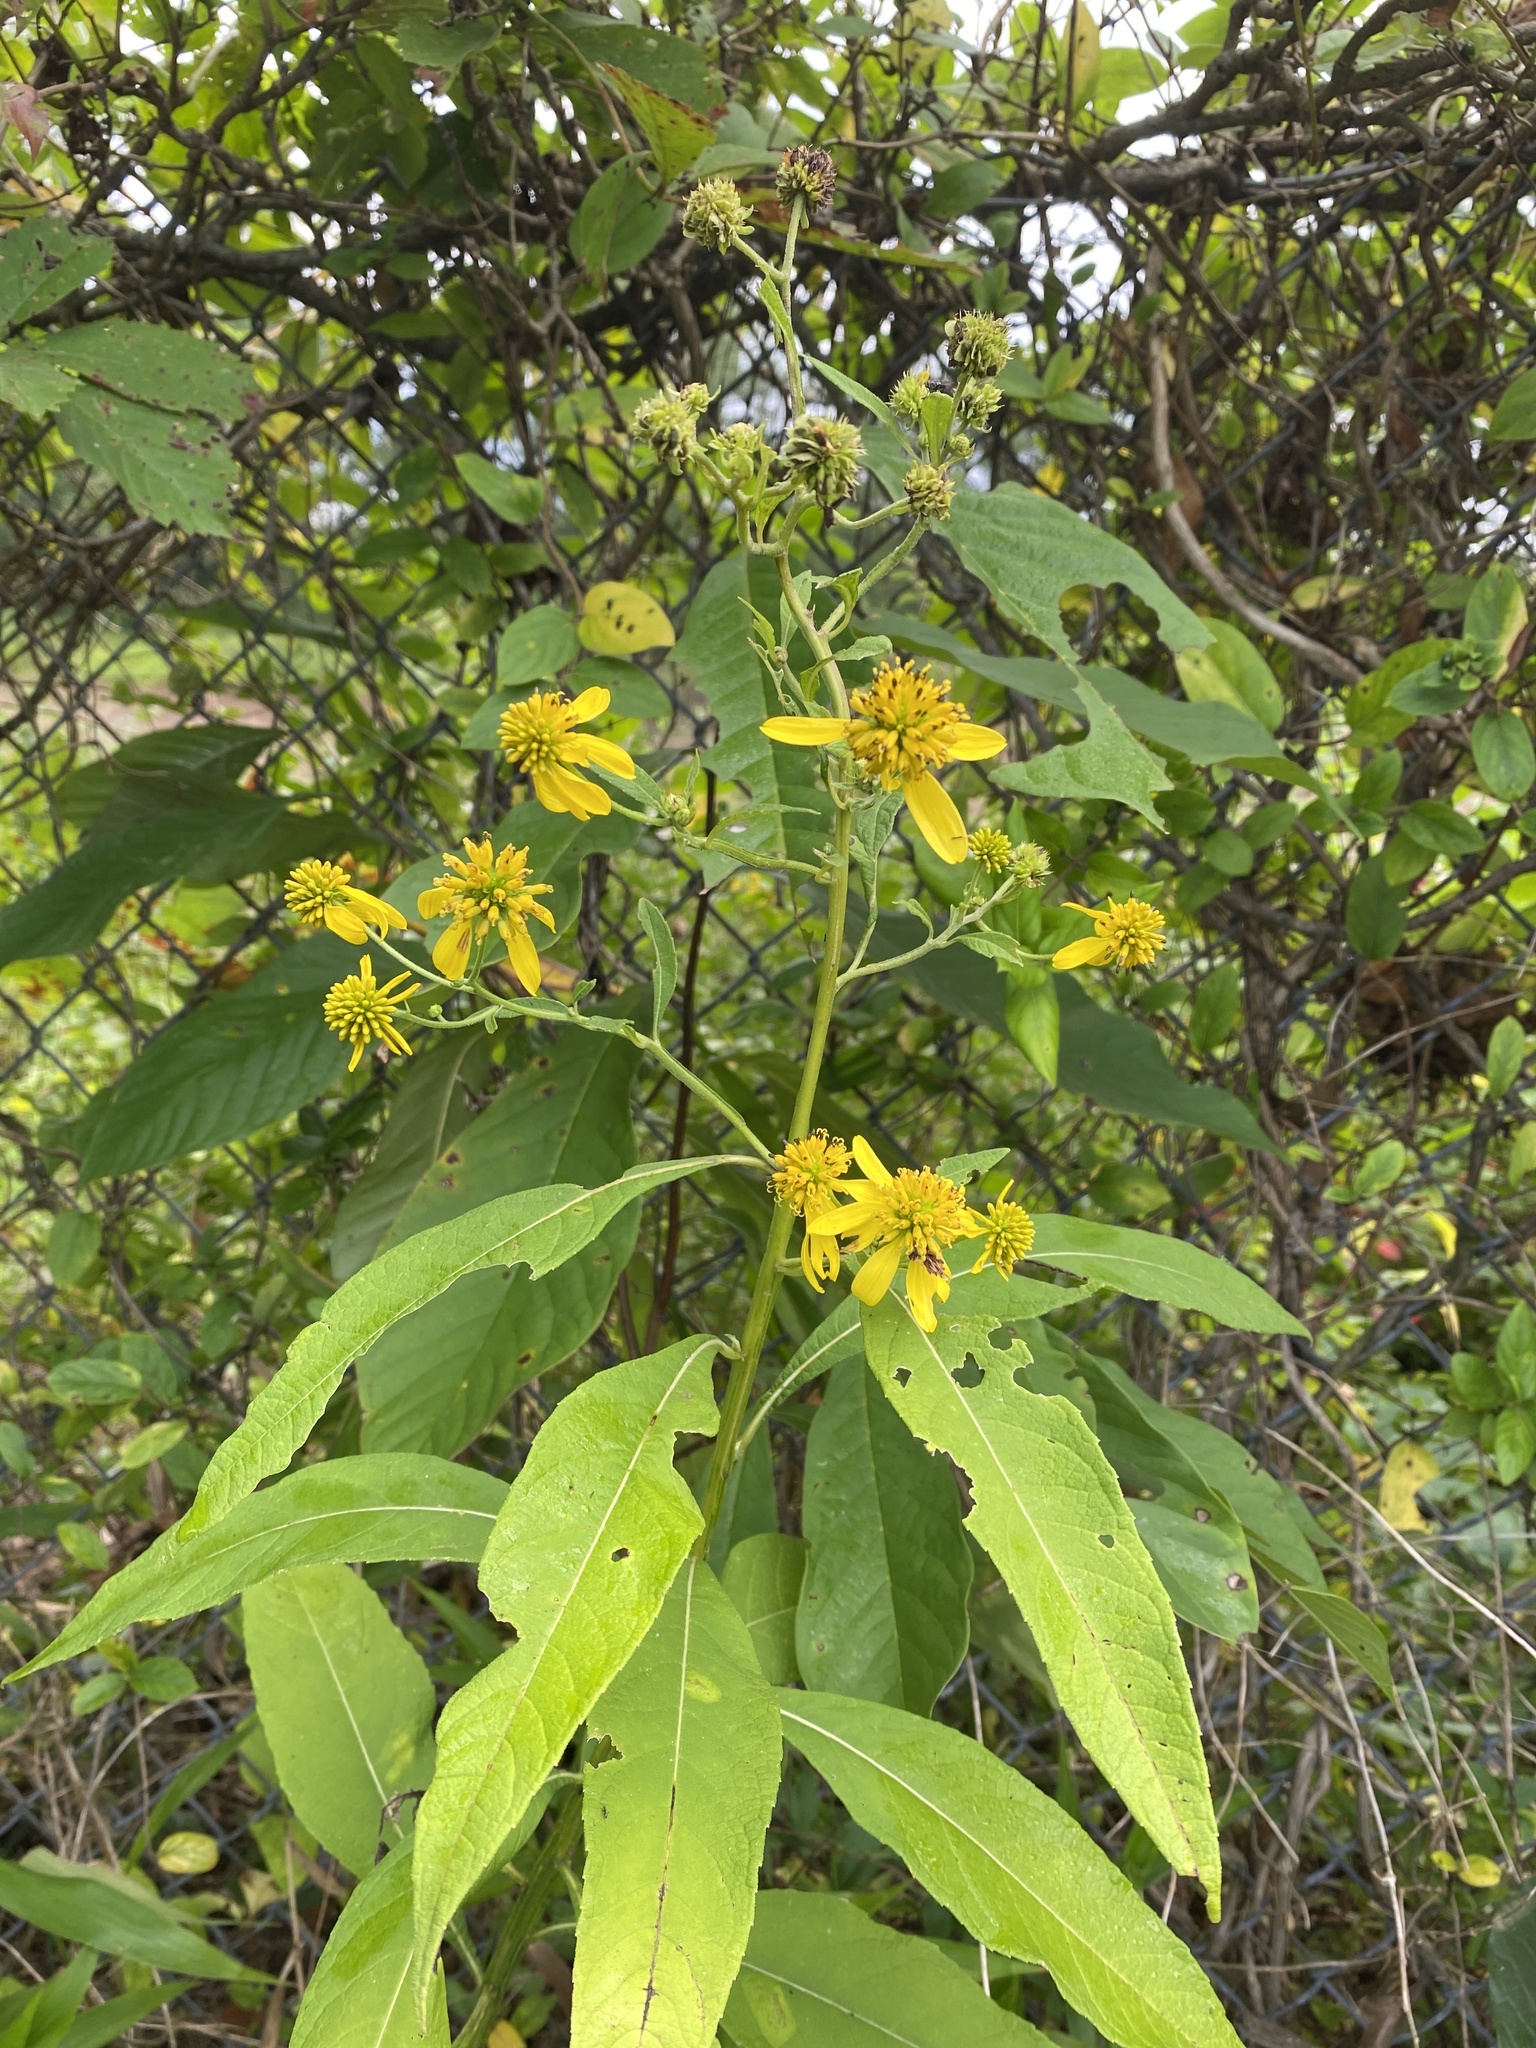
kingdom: Plantae
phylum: Tracheophyta
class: Magnoliopsida
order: Asterales
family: Asteraceae
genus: Verbesina
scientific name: Verbesina alternifolia
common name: Wingstem
